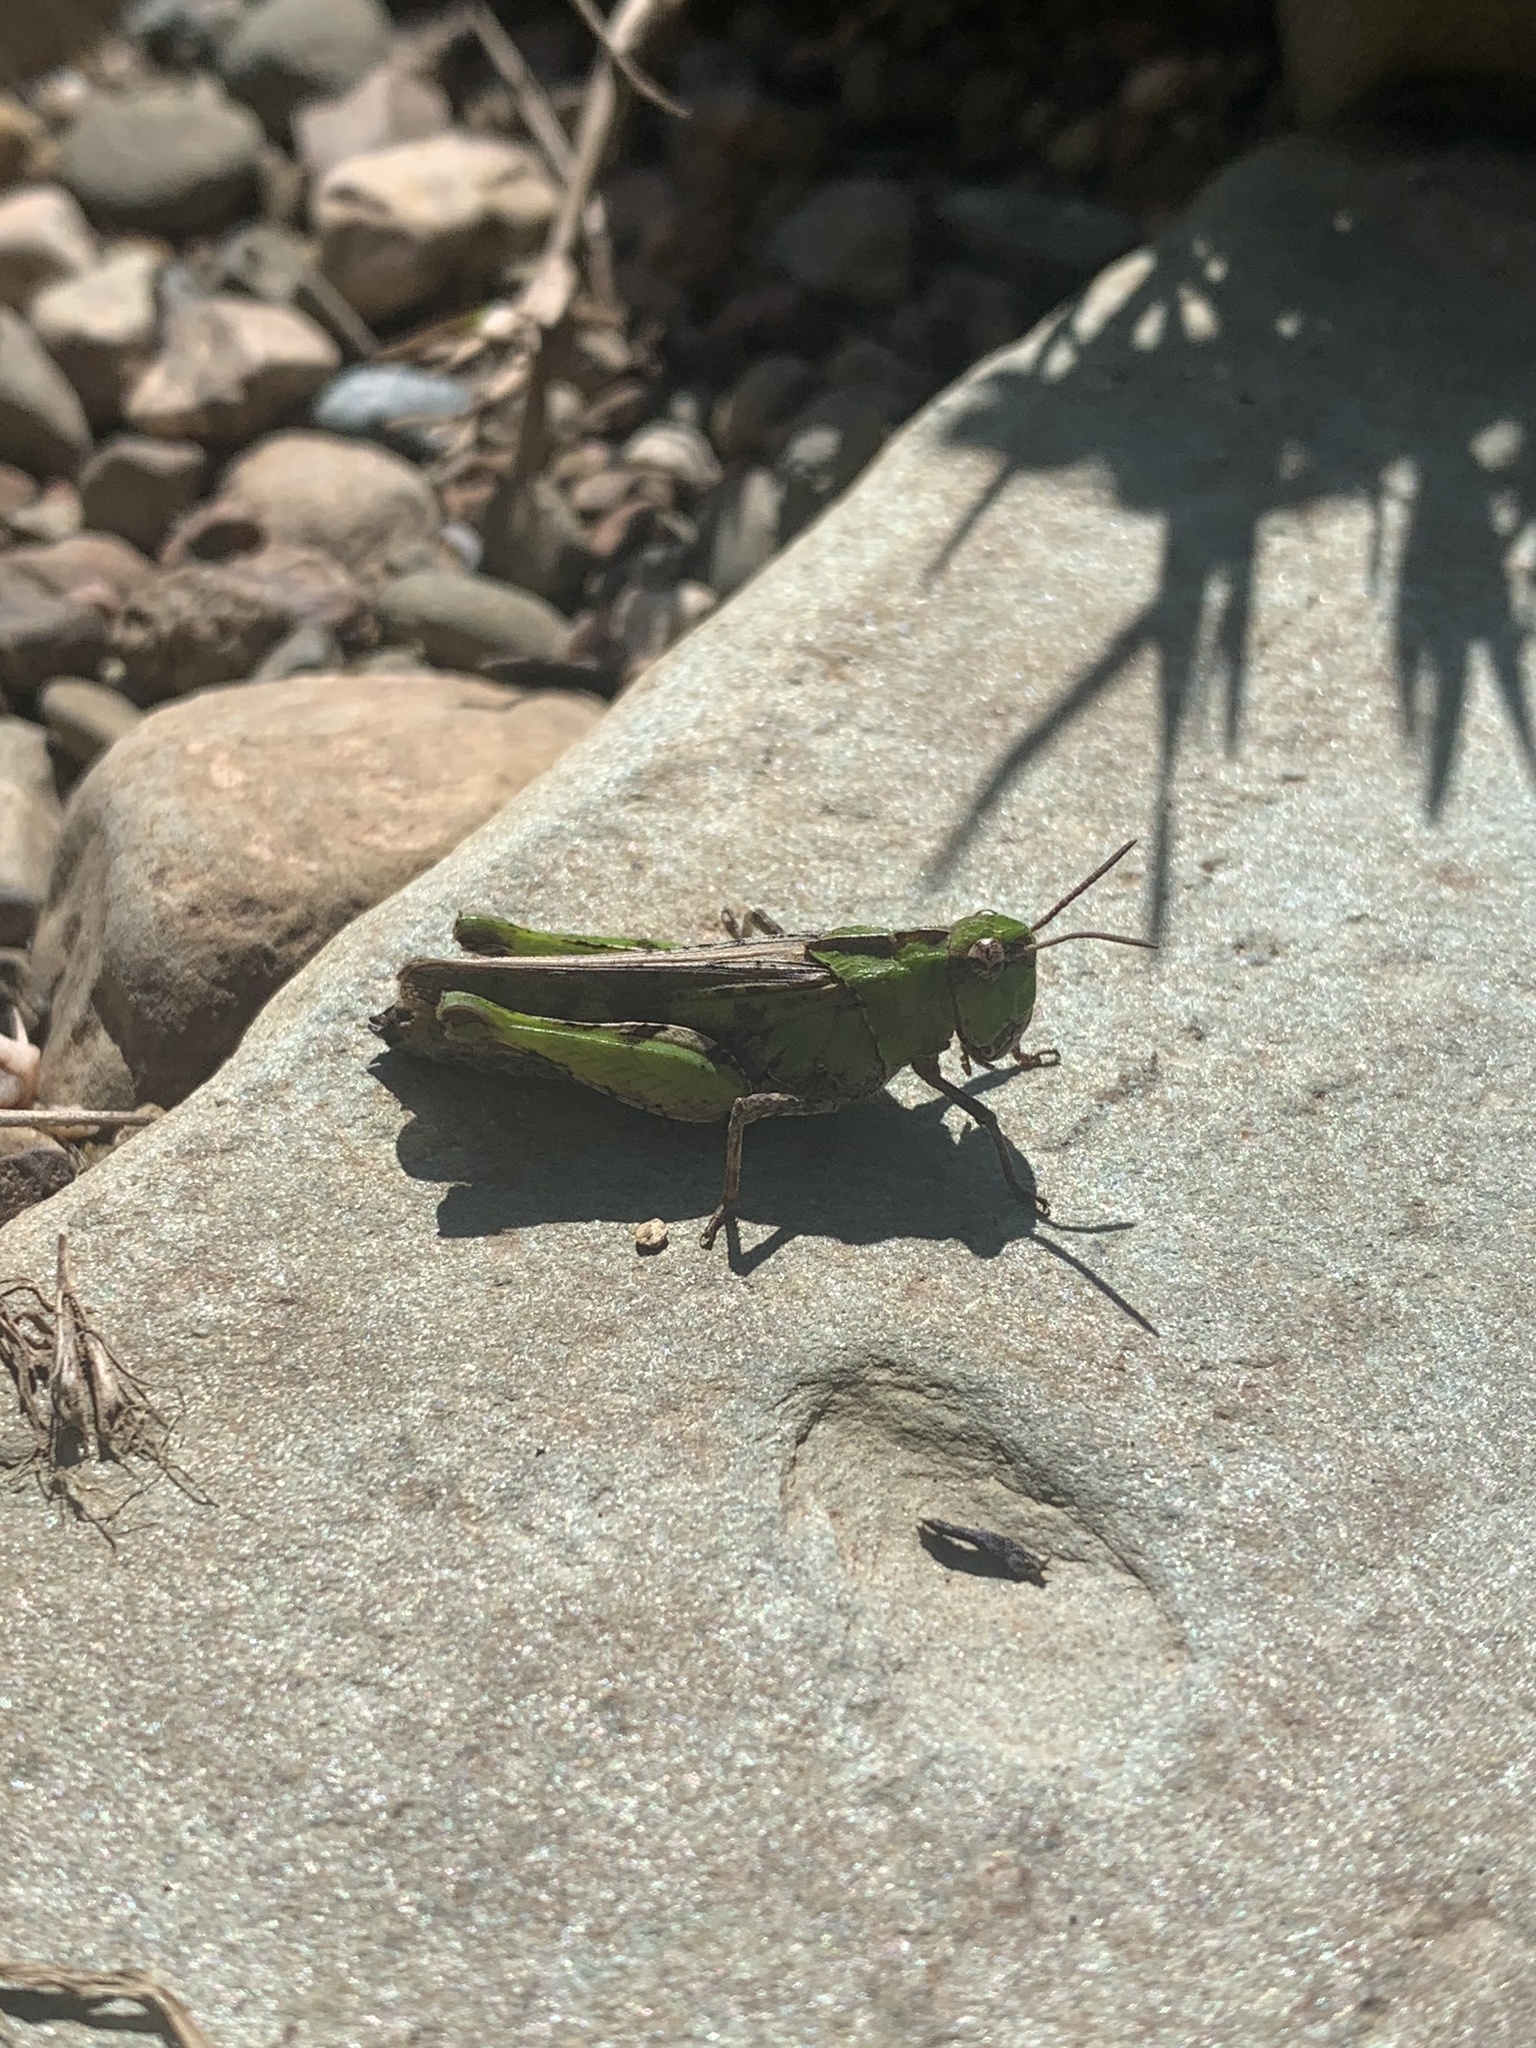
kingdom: Animalia
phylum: Arthropoda
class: Insecta
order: Orthoptera
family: Acrididae
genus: Chimarocephala
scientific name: Chimarocephala pacifica
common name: Painted meadow grasshopper
